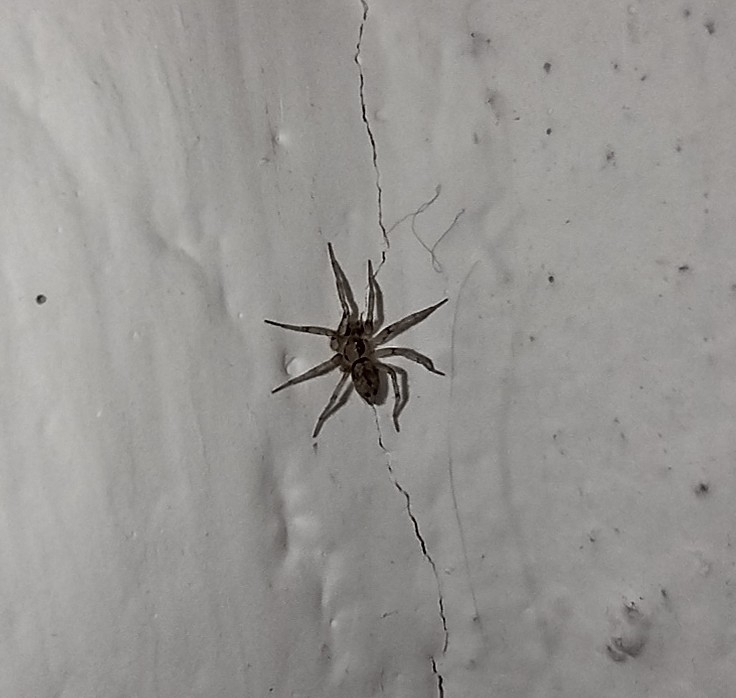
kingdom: Animalia
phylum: Arthropoda
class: Arachnida
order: Araneae
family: Oecobiidae
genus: Oecobius
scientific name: Oecobius navus
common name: Flatmesh weaver
